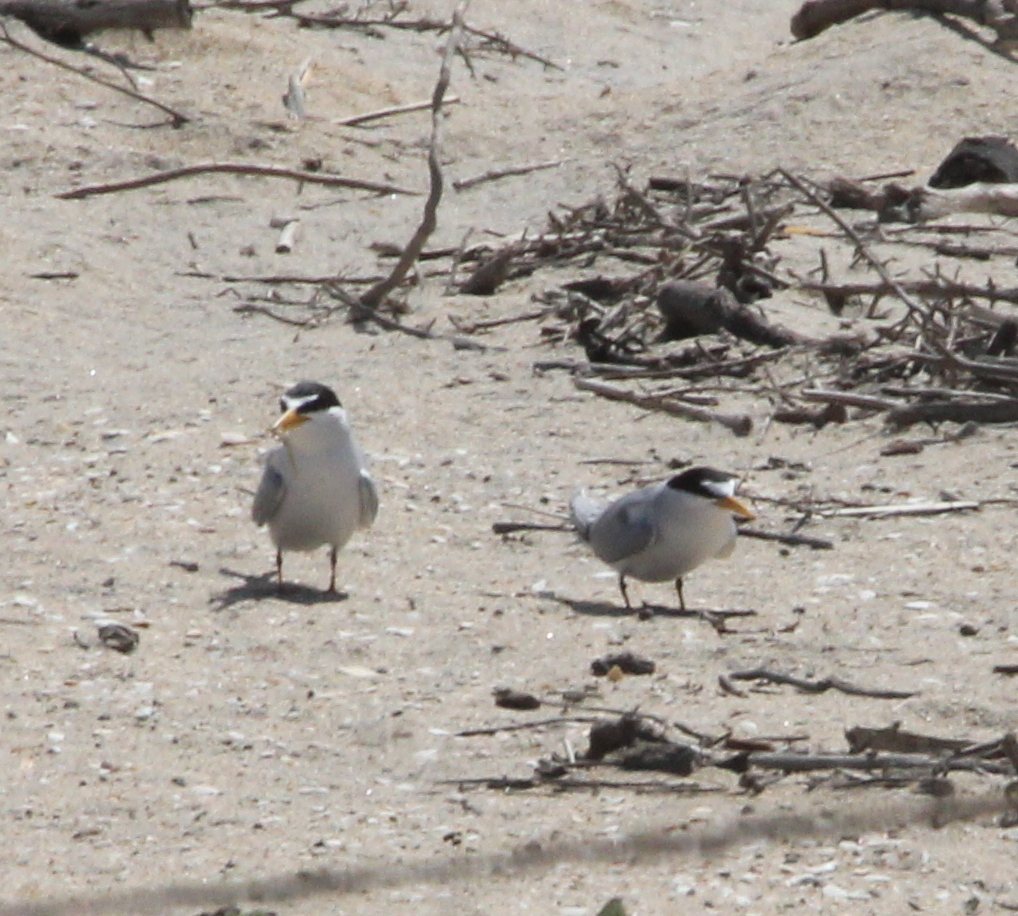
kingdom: Animalia
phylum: Chordata
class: Aves
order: Charadriiformes
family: Laridae
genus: Sternula
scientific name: Sternula antillarum
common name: Least tern
